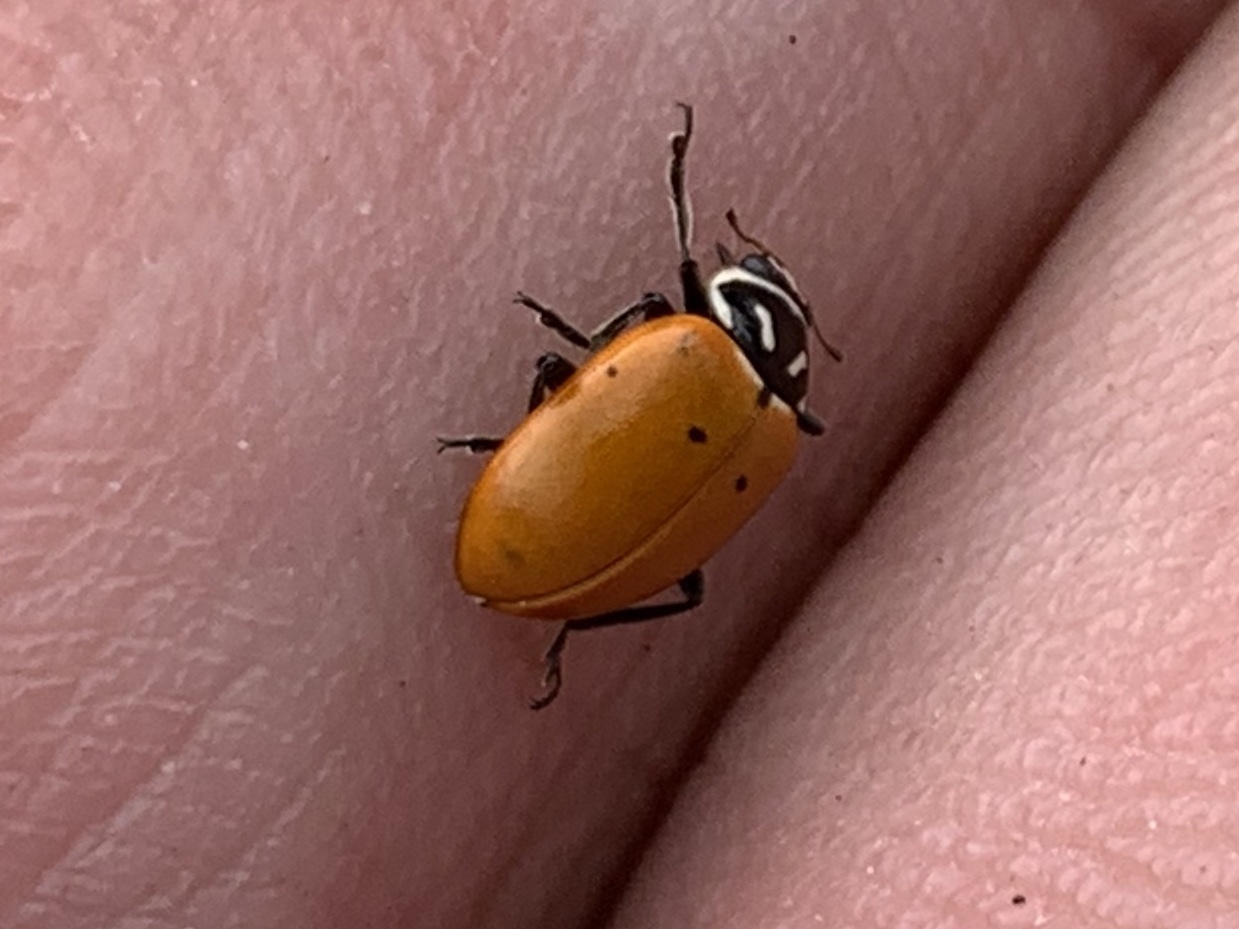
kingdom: Animalia
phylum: Arthropoda
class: Insecta
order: Coleoptera
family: Coccinellidae
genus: Hippodamia
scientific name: Hippodamia convergens
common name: Convergent lady beetle
